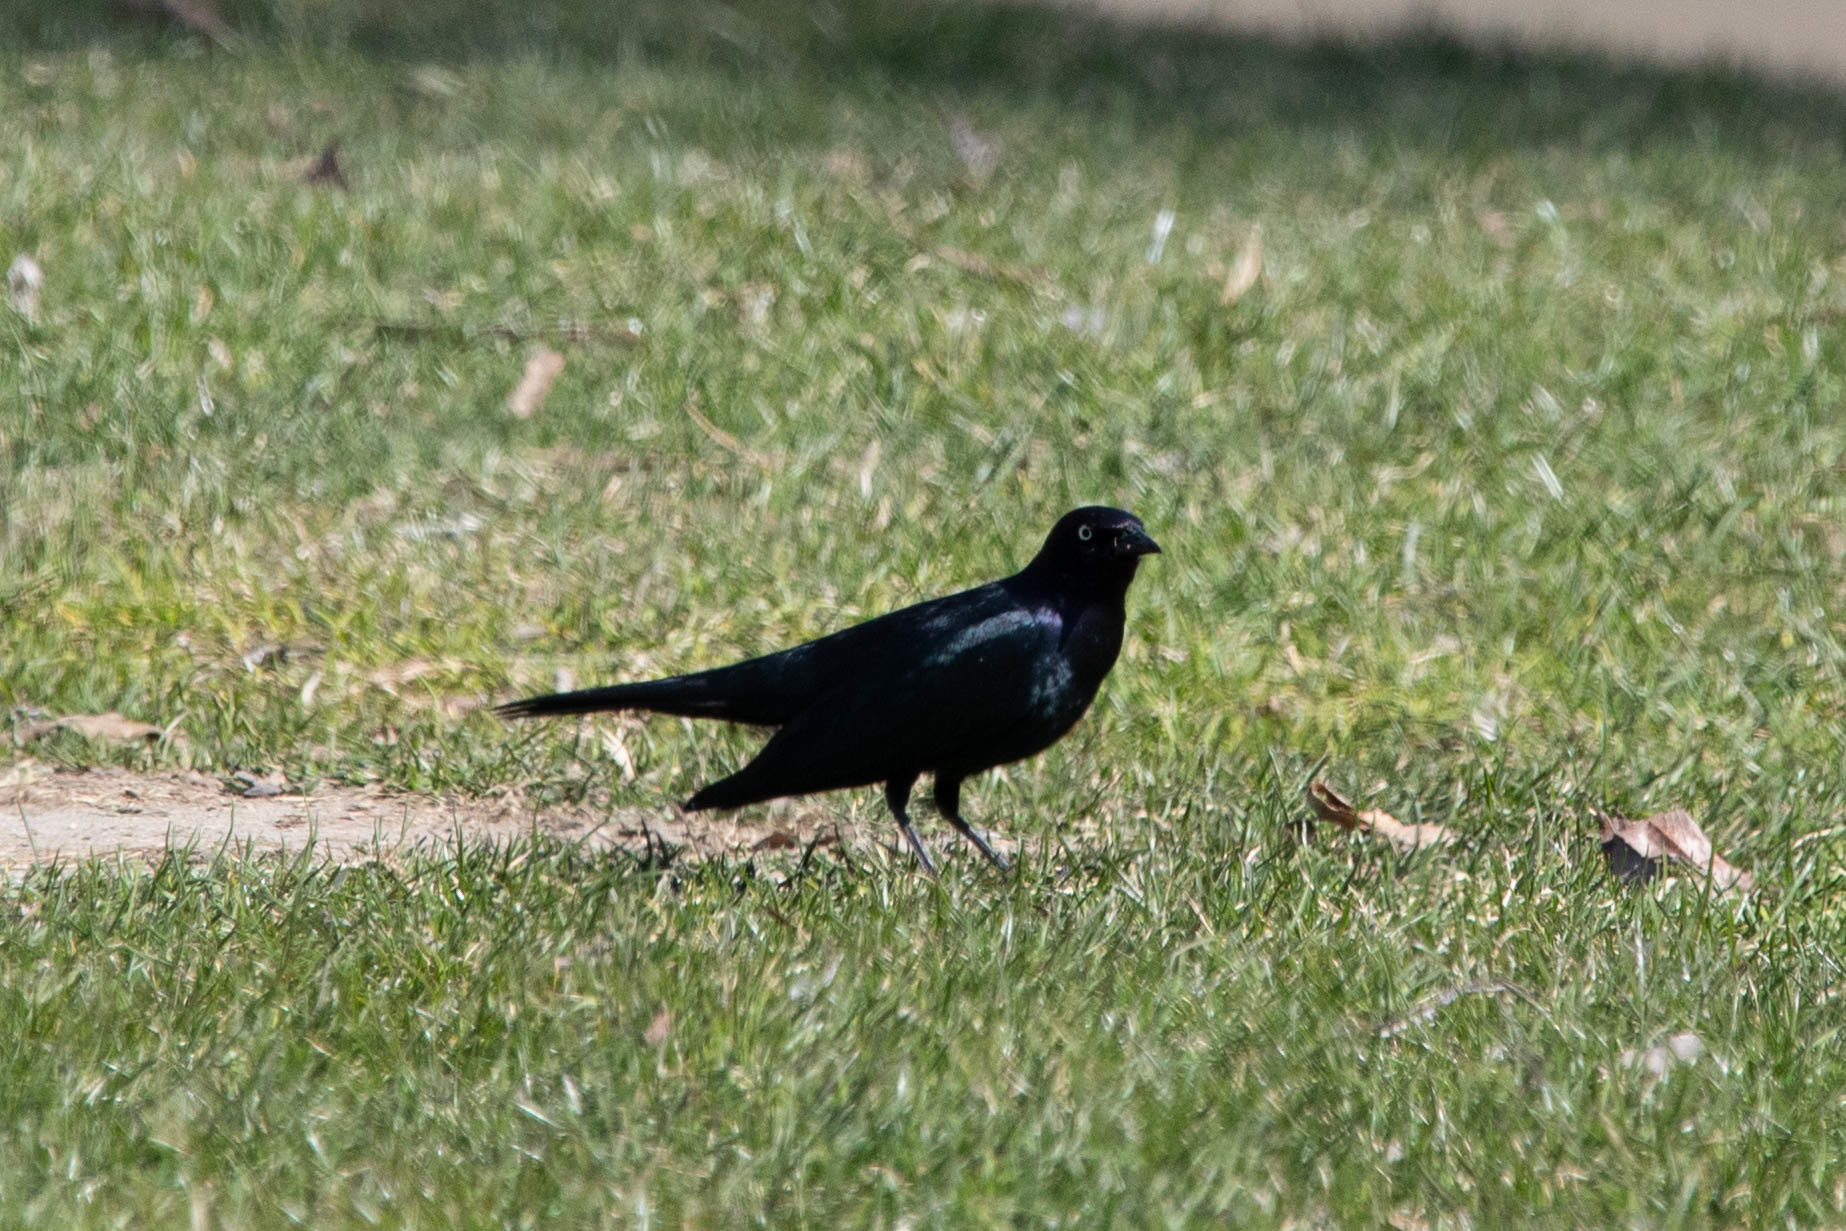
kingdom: Animalia
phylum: Chordata
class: Aves
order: Passeriformes
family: Icteridae
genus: Euphagus
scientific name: Euphagus cyanocephalus
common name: Brewer's blackbird
